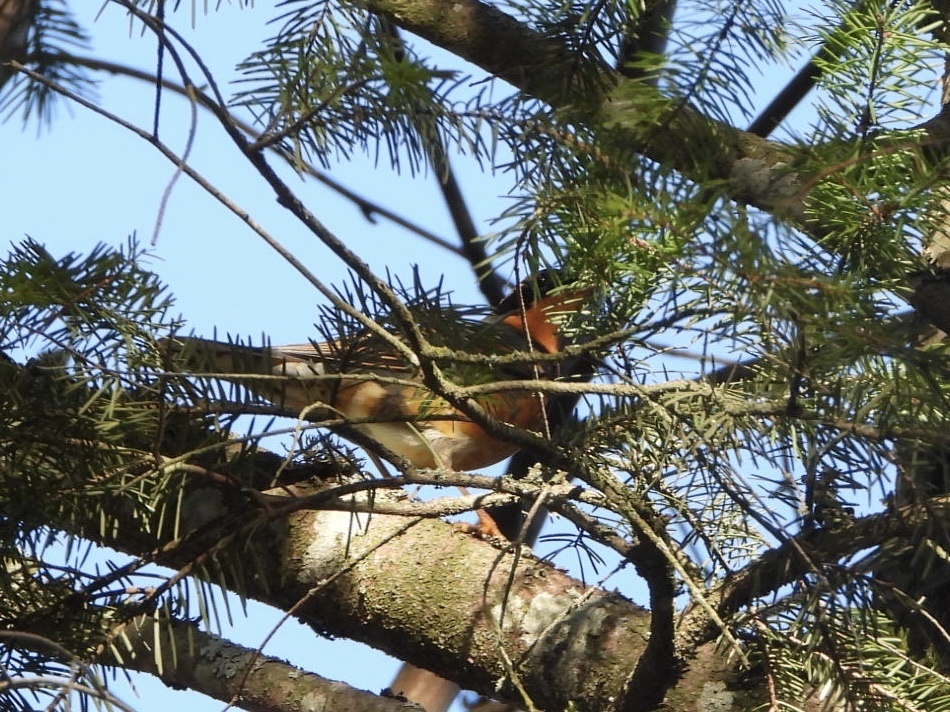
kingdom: Animalia
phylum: Chordata
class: Aves
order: Passeriformes
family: Turdidae
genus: Ixoreus
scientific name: Ixoreus naevius
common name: Varied thrush
